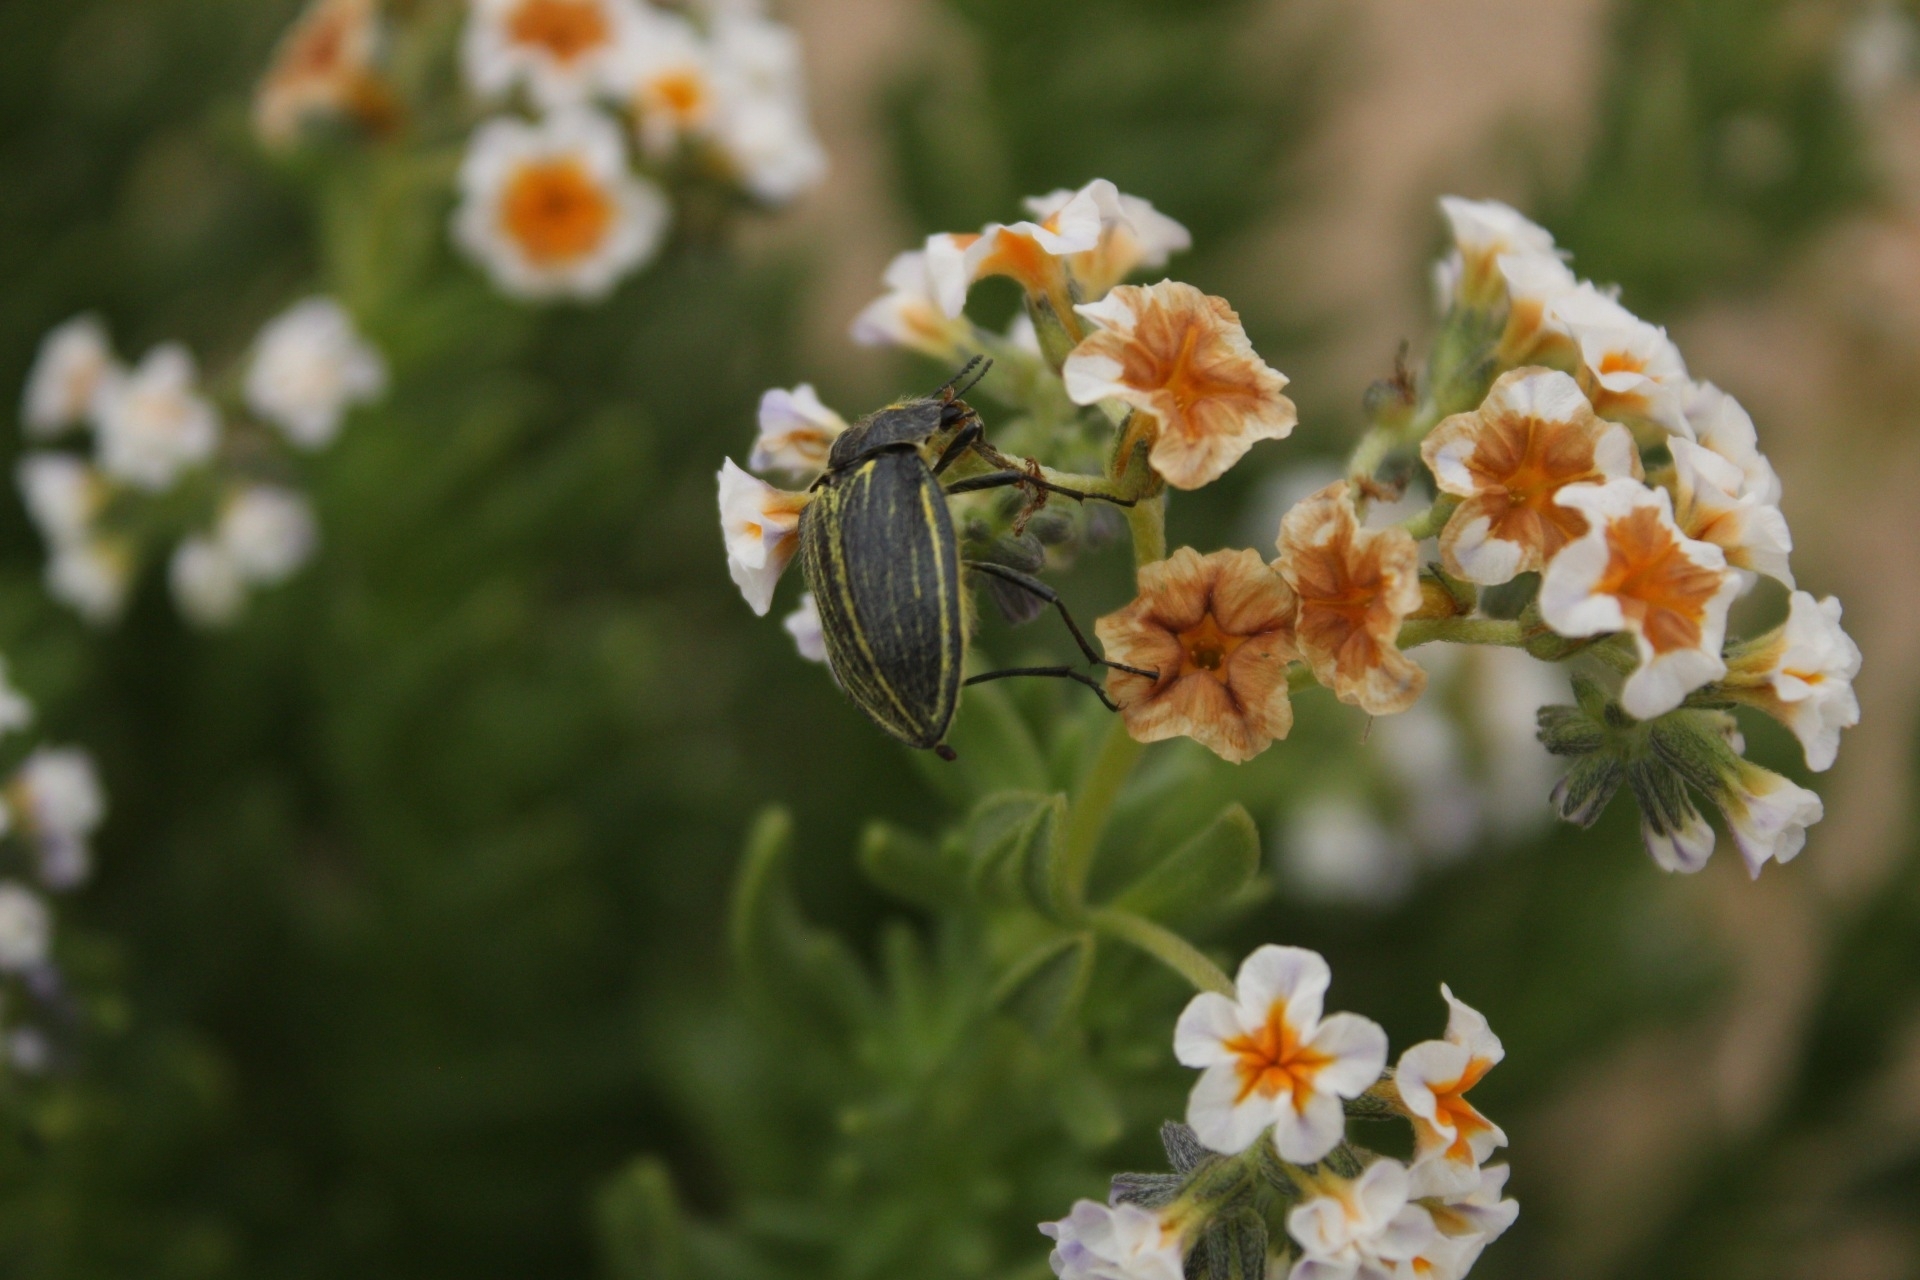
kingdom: Animalia
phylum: Arthropoda
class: Insecta
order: Coleoptera
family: Tenebrionidae
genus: Geoborus
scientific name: Geoborus
